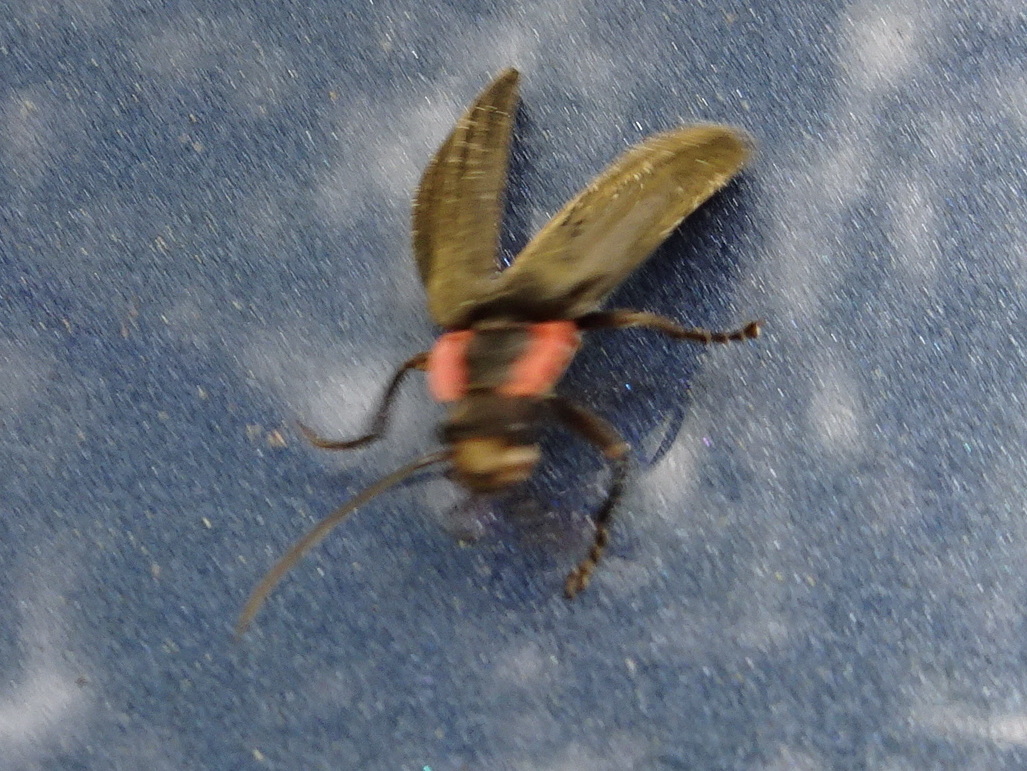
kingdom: Animalia
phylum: Arthropoda
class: Insecta
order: Coleoptera
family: Cantharidae
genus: Podabrus
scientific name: Podabrus tricostatus
